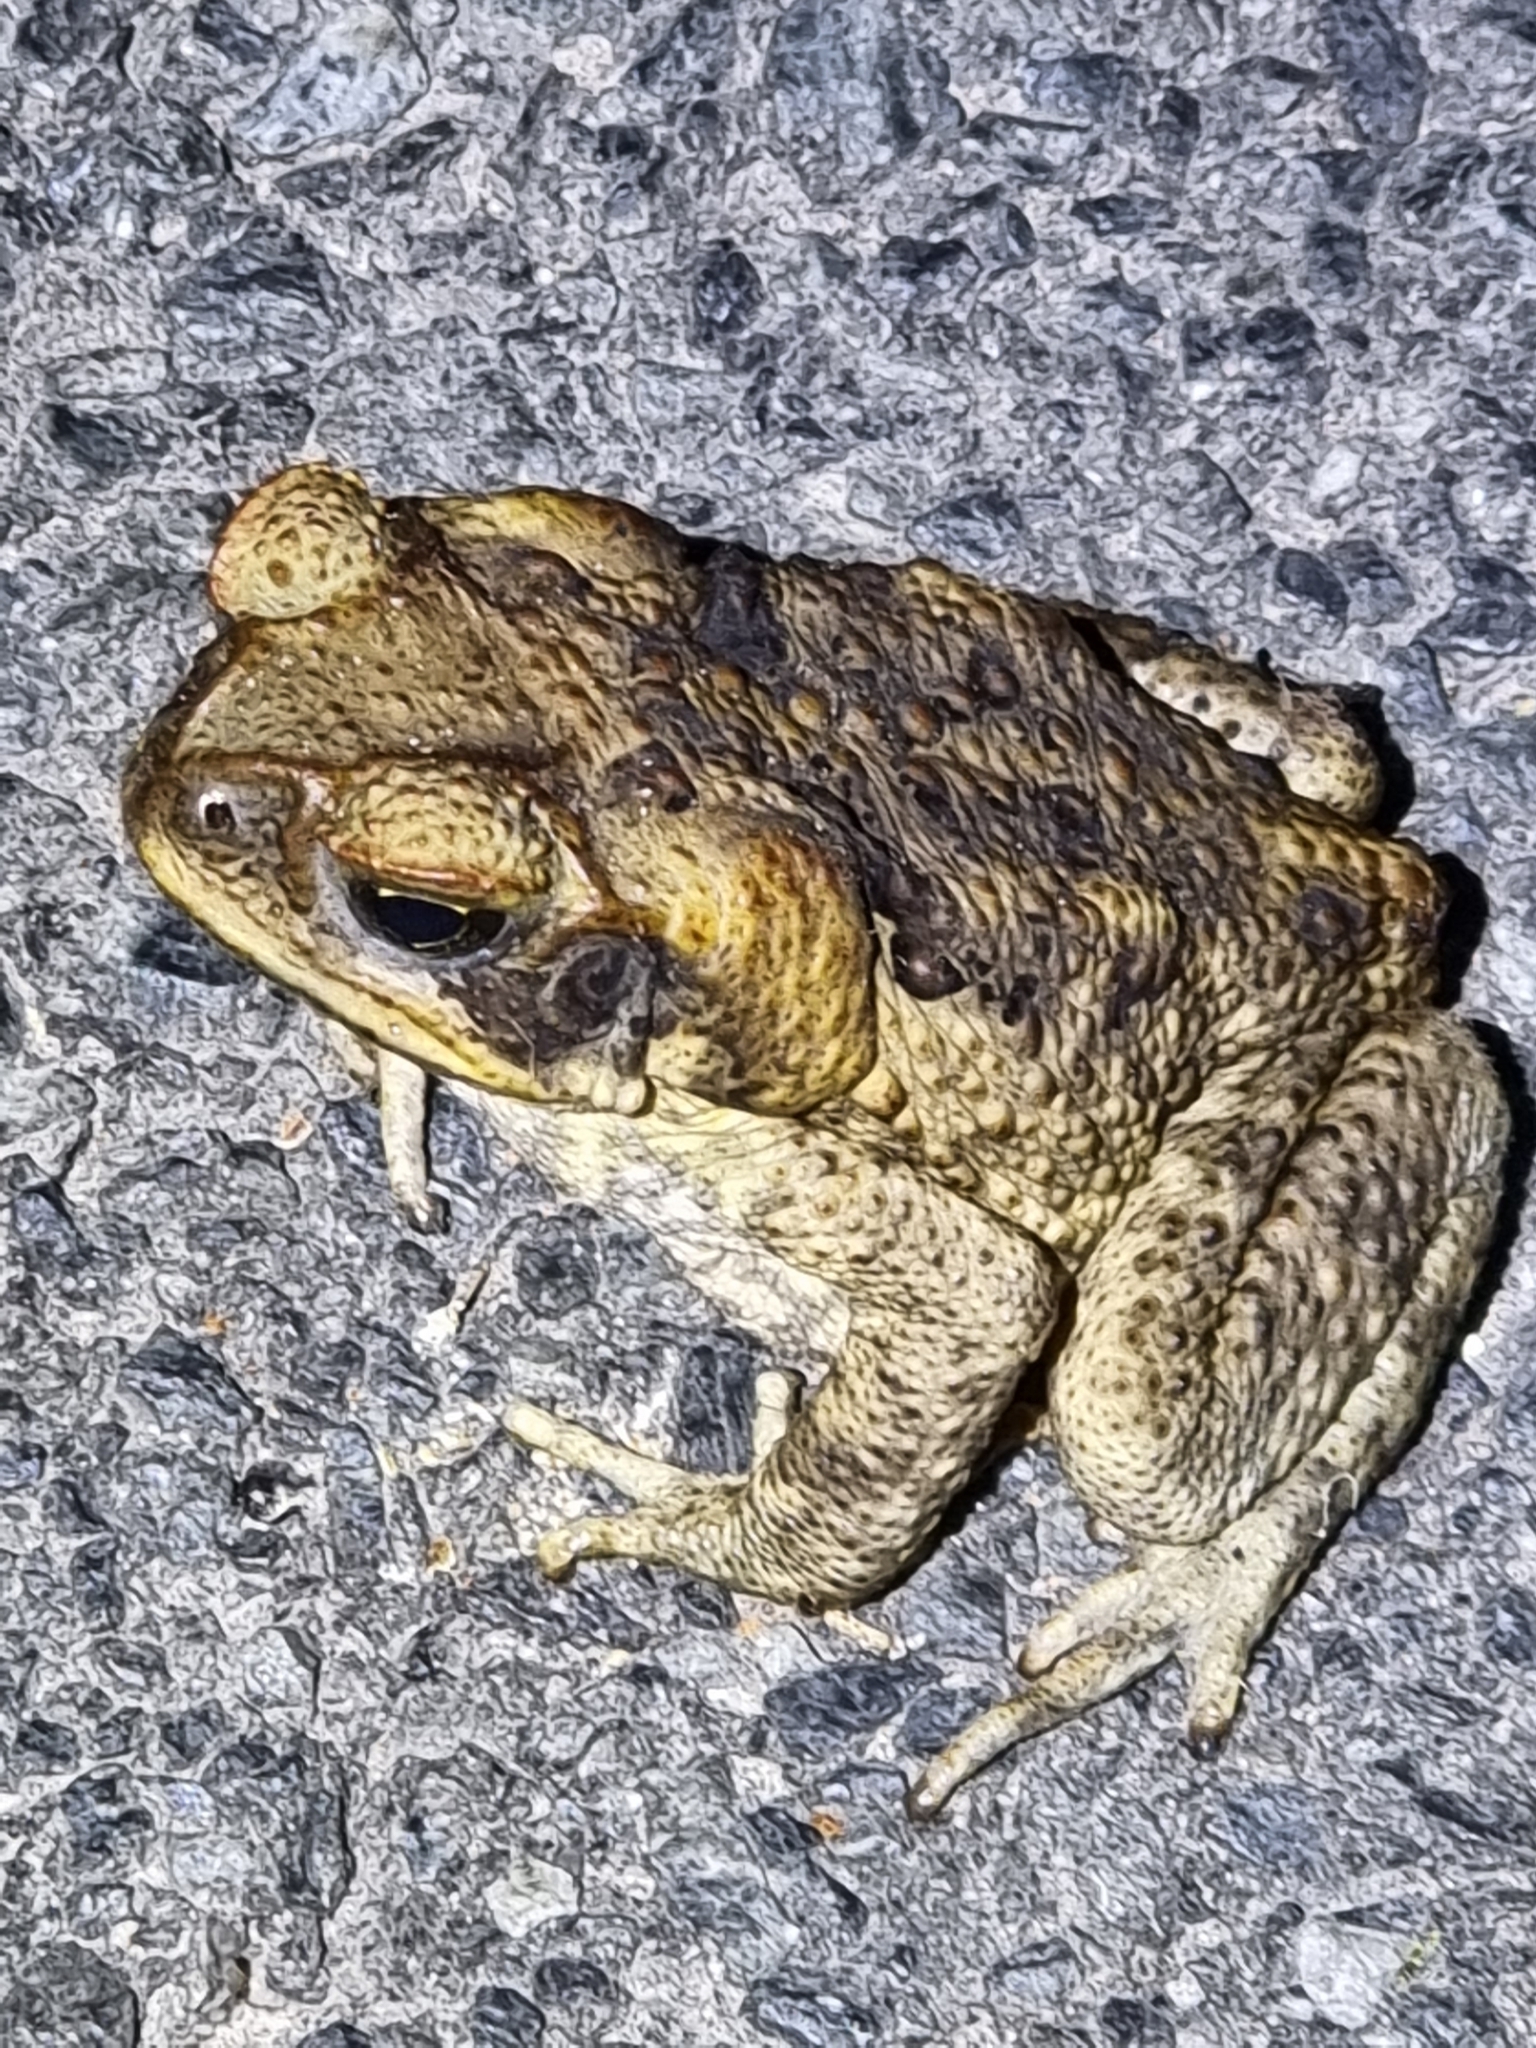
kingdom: Animalia
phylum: Chordata
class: Amphibia
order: Anura
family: Bufonidae
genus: Rhinella
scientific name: Rhinella marina
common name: Cane toad
